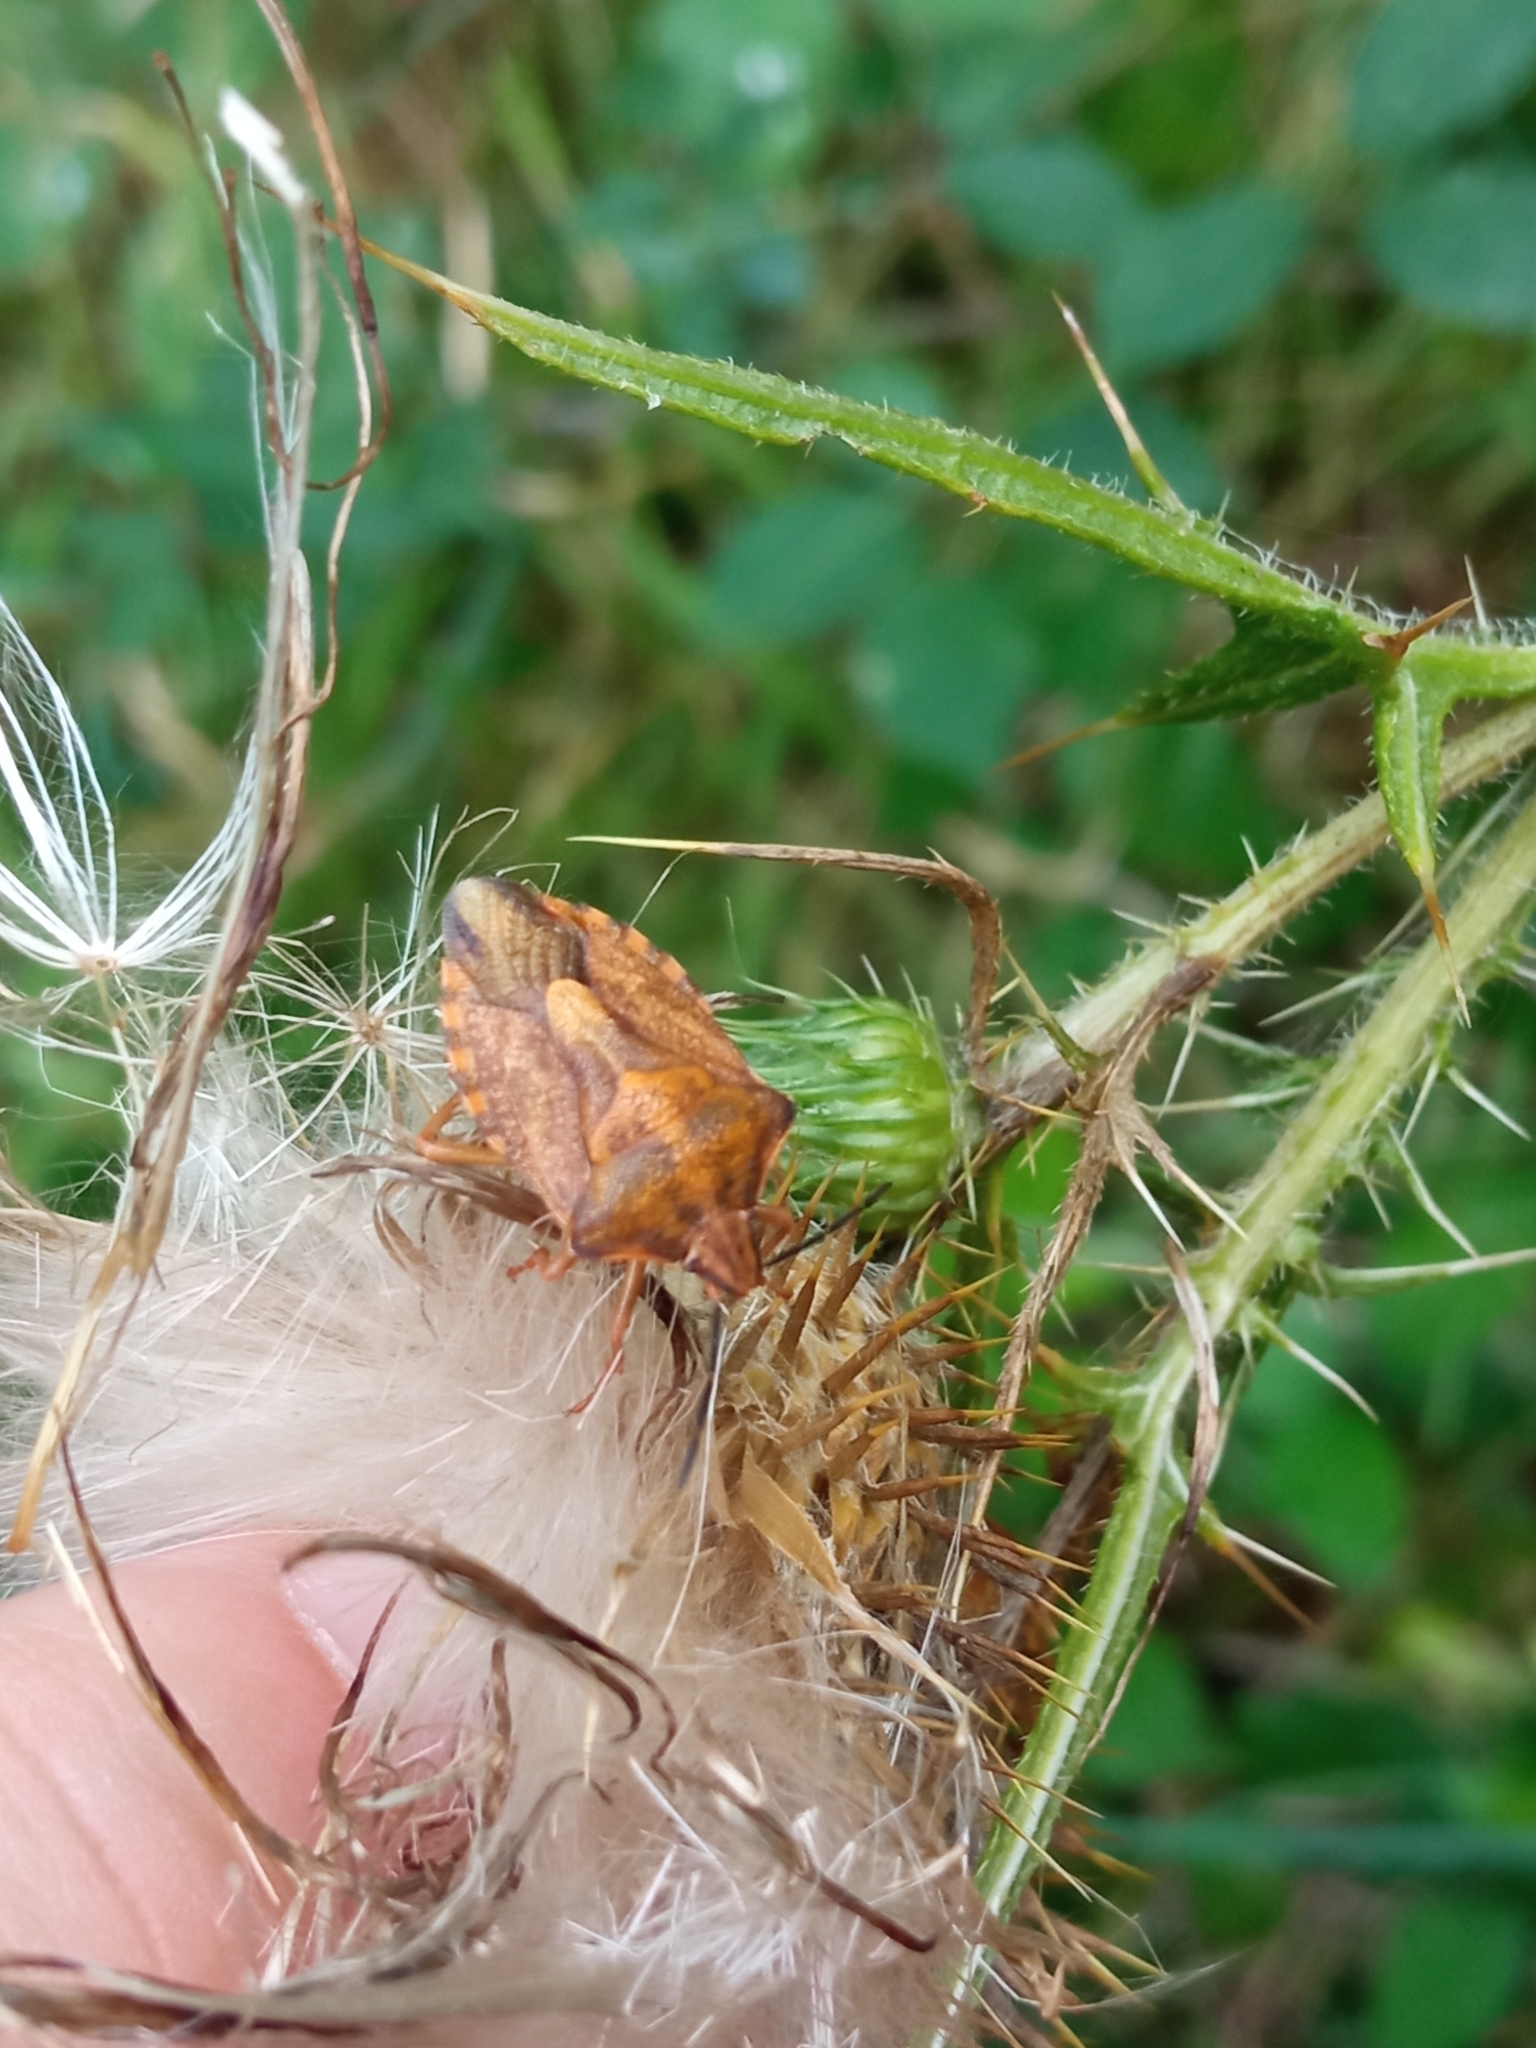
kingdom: Animalia
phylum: Arthropoda
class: Insecta
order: Hemiptera
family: Pentatomidae
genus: Carpocoris
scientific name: Carpocoris purpureipennis
